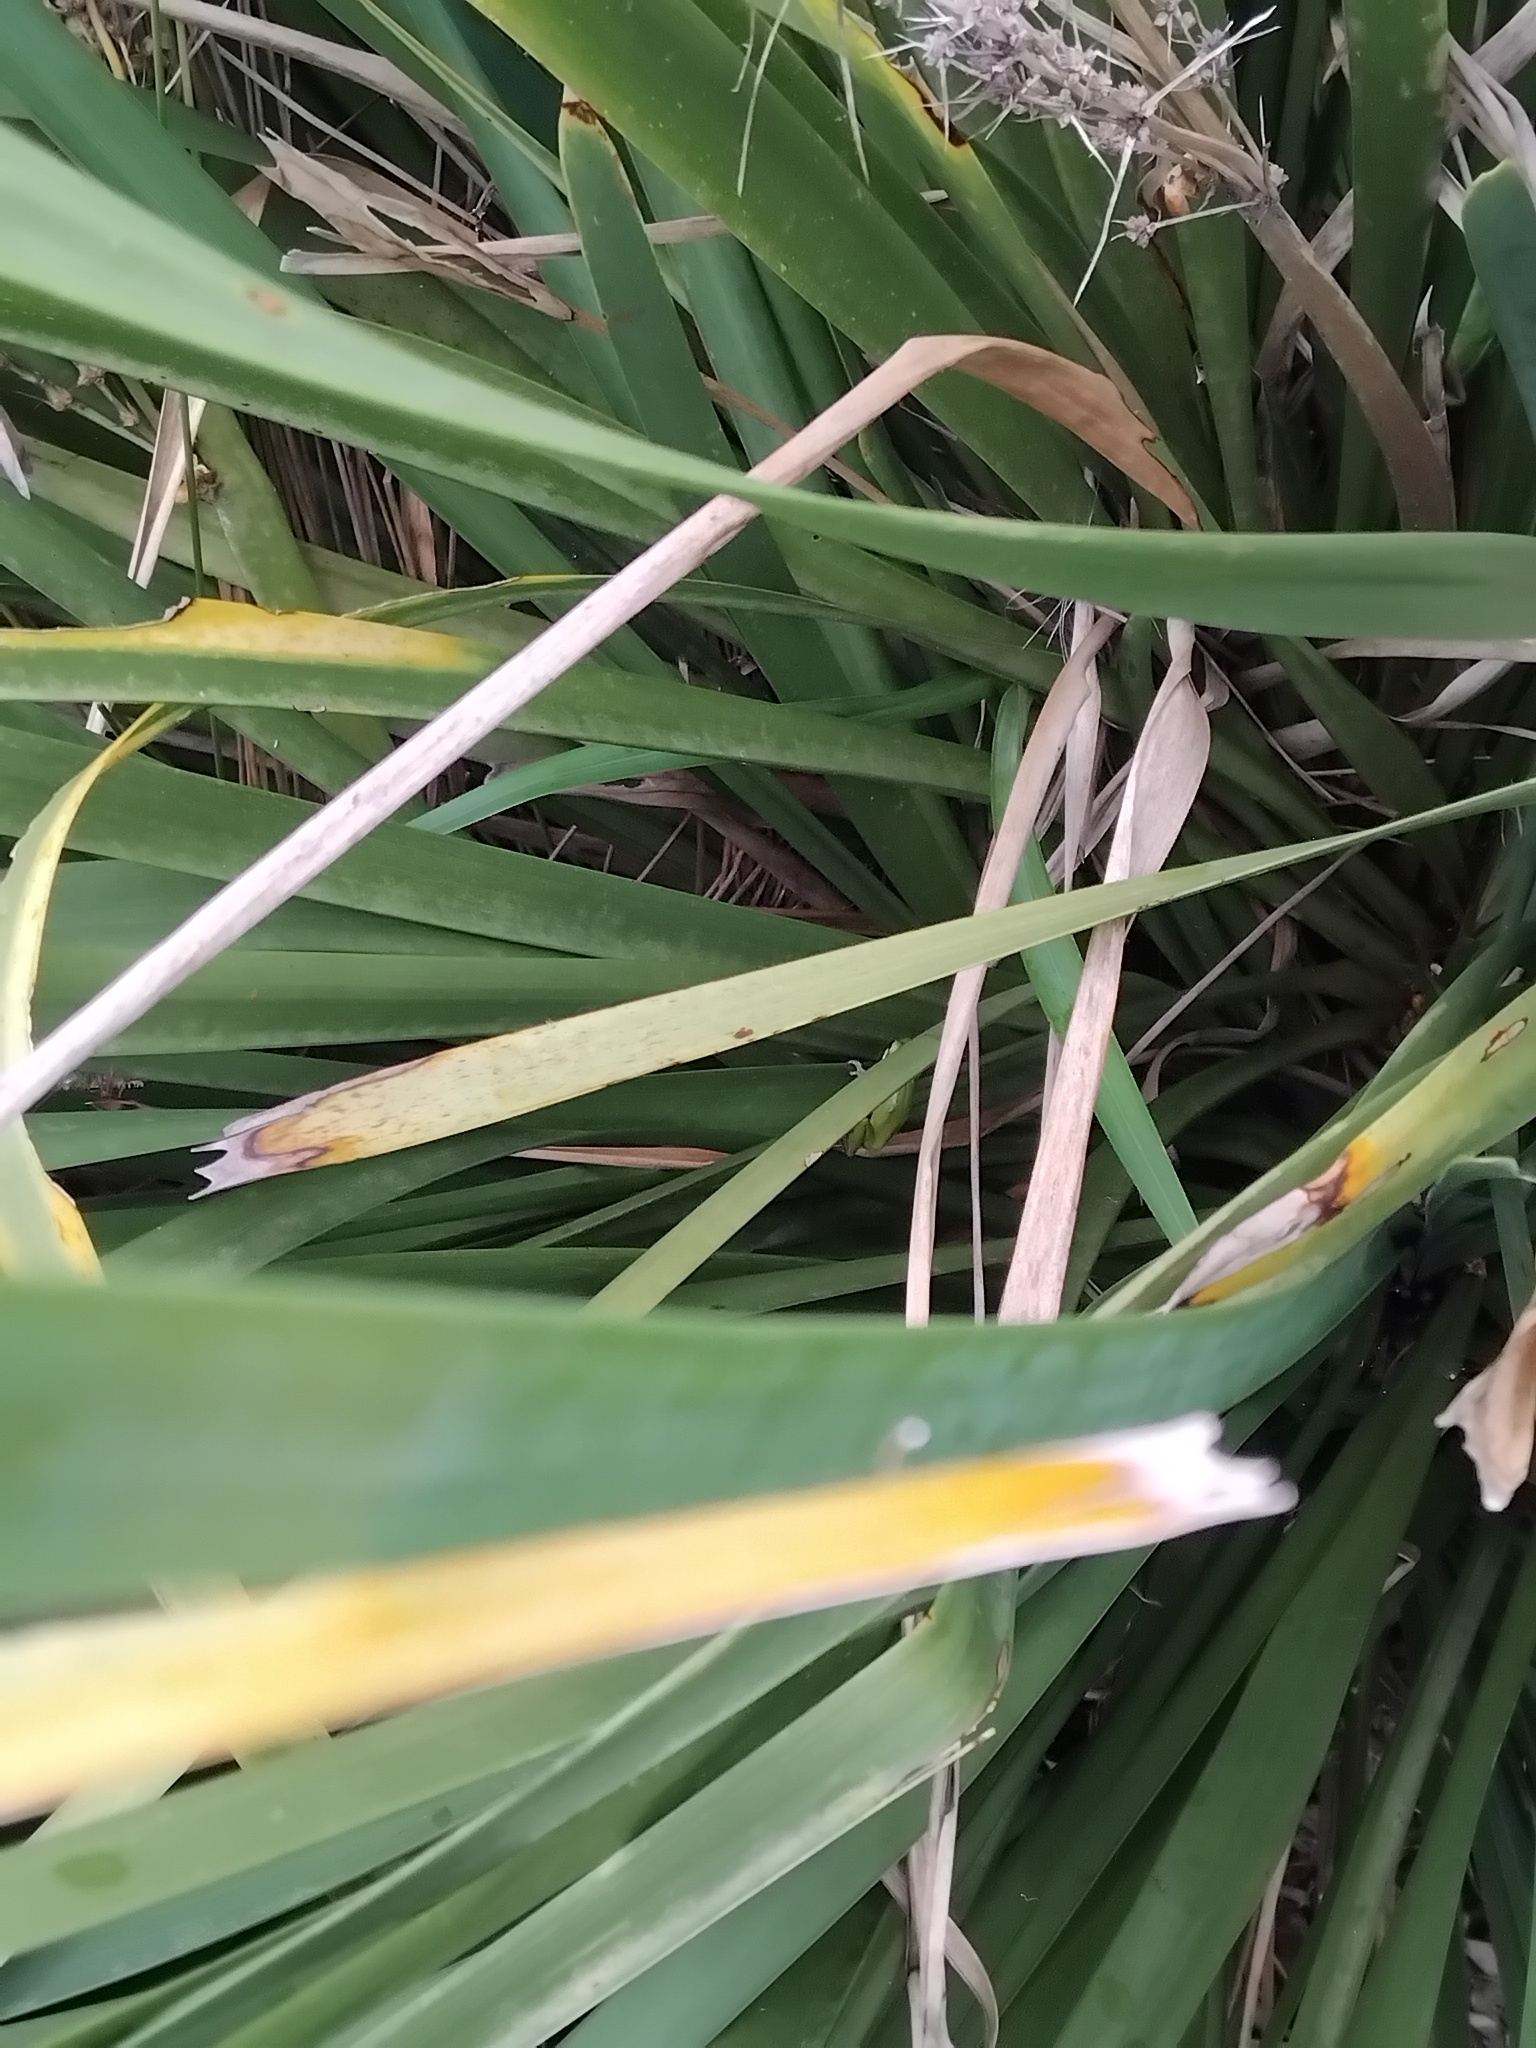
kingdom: Animalia
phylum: Chordata
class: Amphibia
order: Anura
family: Pelodryadidae
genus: Litoria
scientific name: Litoria fallax
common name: Eastern dwarf treefrog
